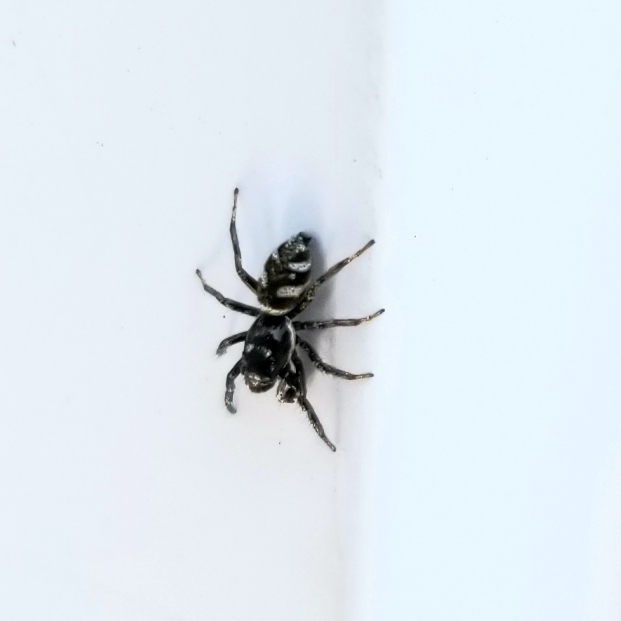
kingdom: Animalia
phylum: Arthropoda
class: Arachnida
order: Araneae
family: Salticidae
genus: Salticus
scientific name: Salticus scenicus
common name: Zebra jumper
